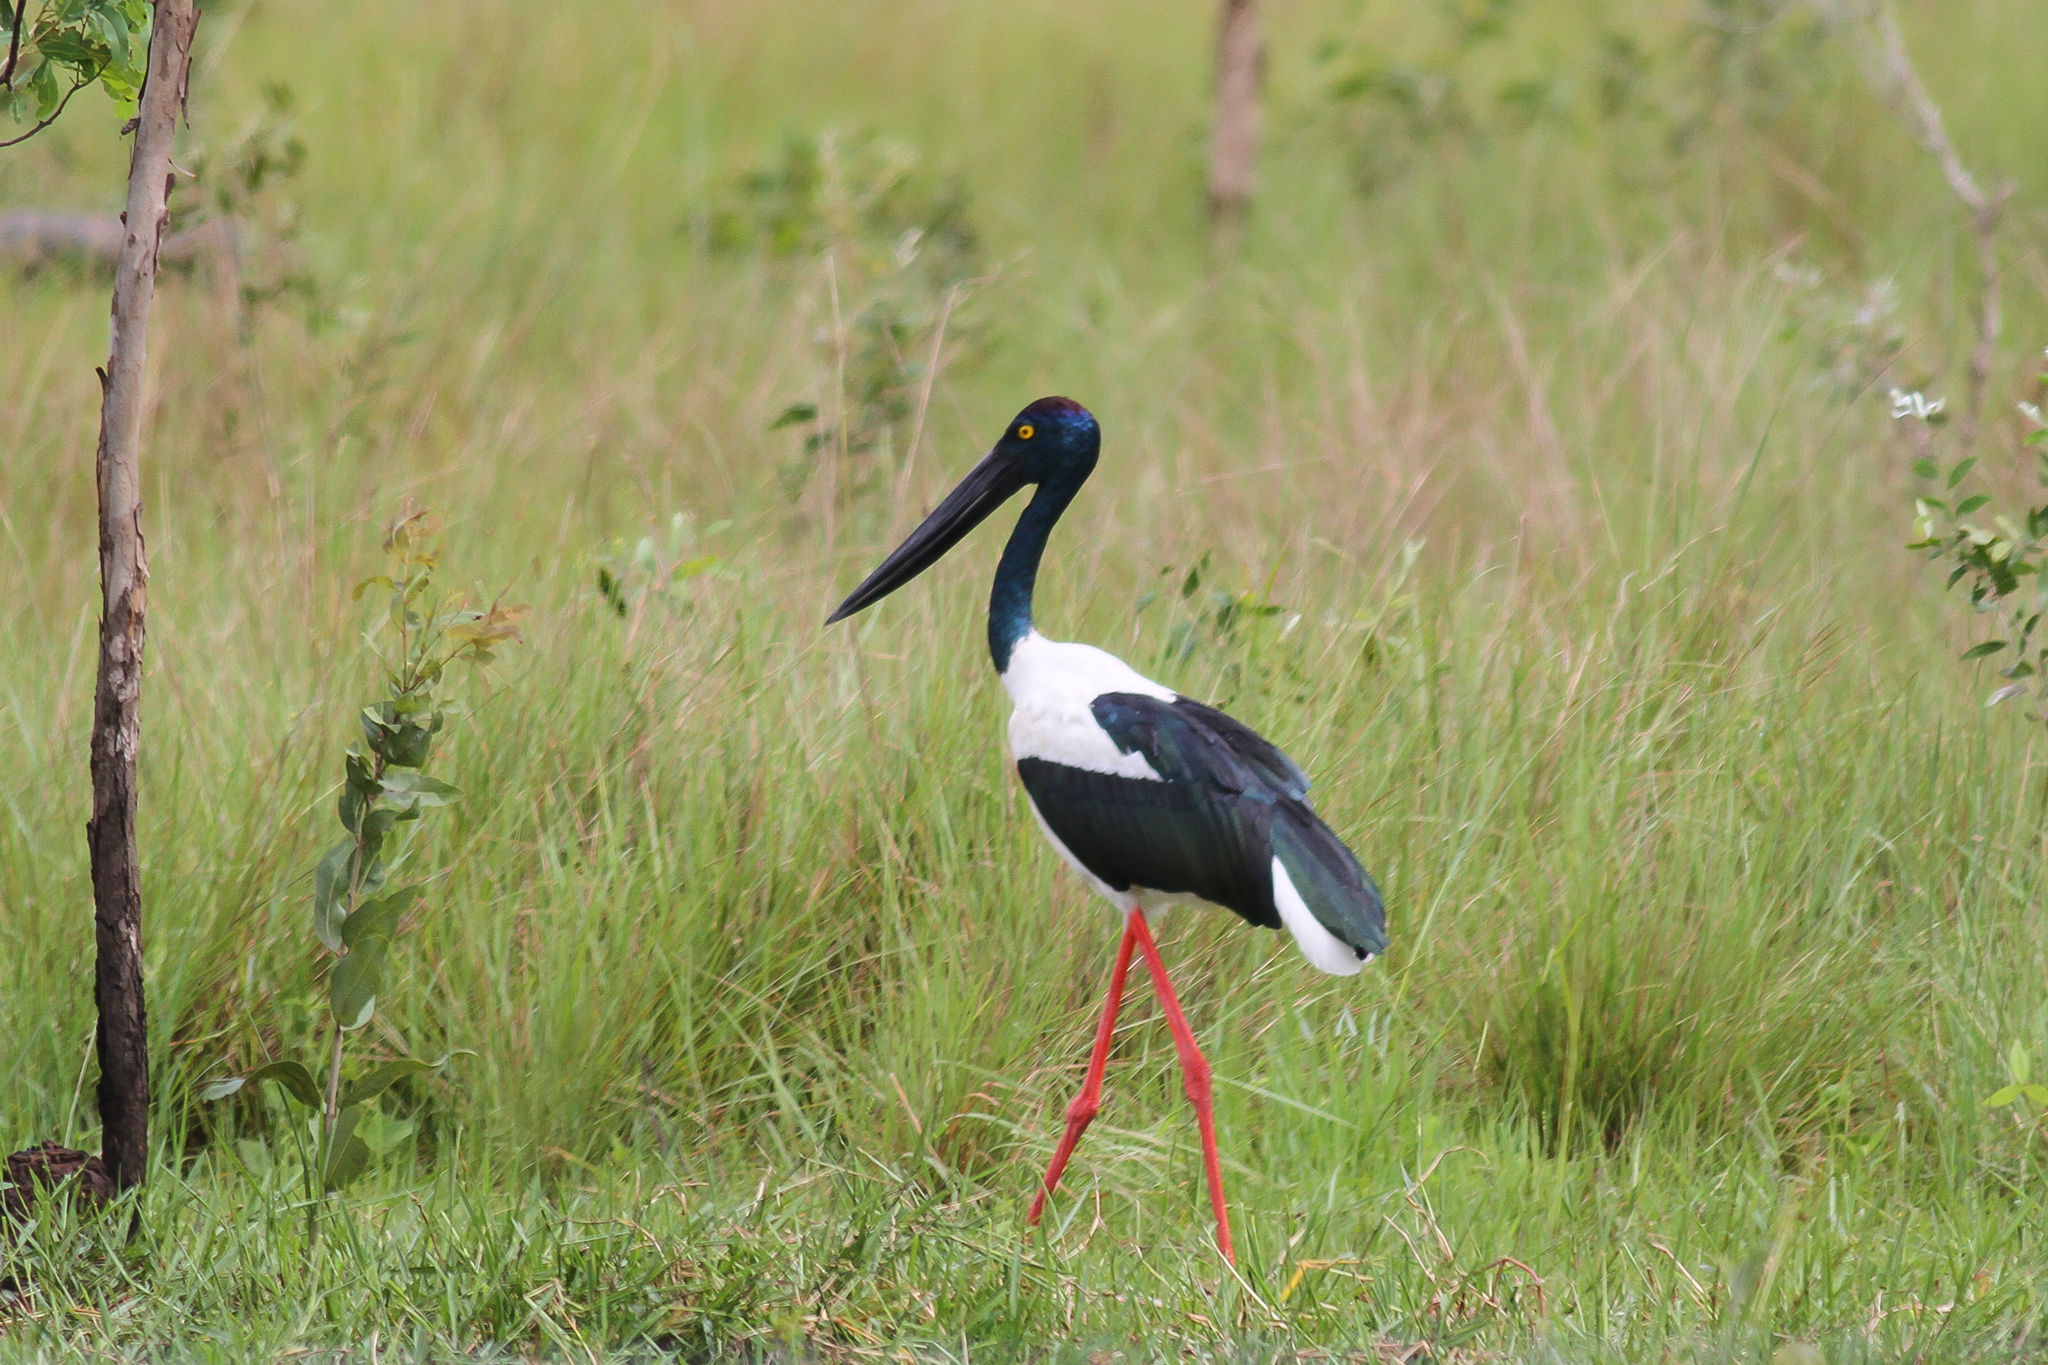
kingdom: Animalia
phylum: Chordata
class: Aves
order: Ciconiiformes
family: Ciconiidae
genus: Ephippiorhynchus
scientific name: Ephippiorhynchus asiaticus
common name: Black-necked stork
